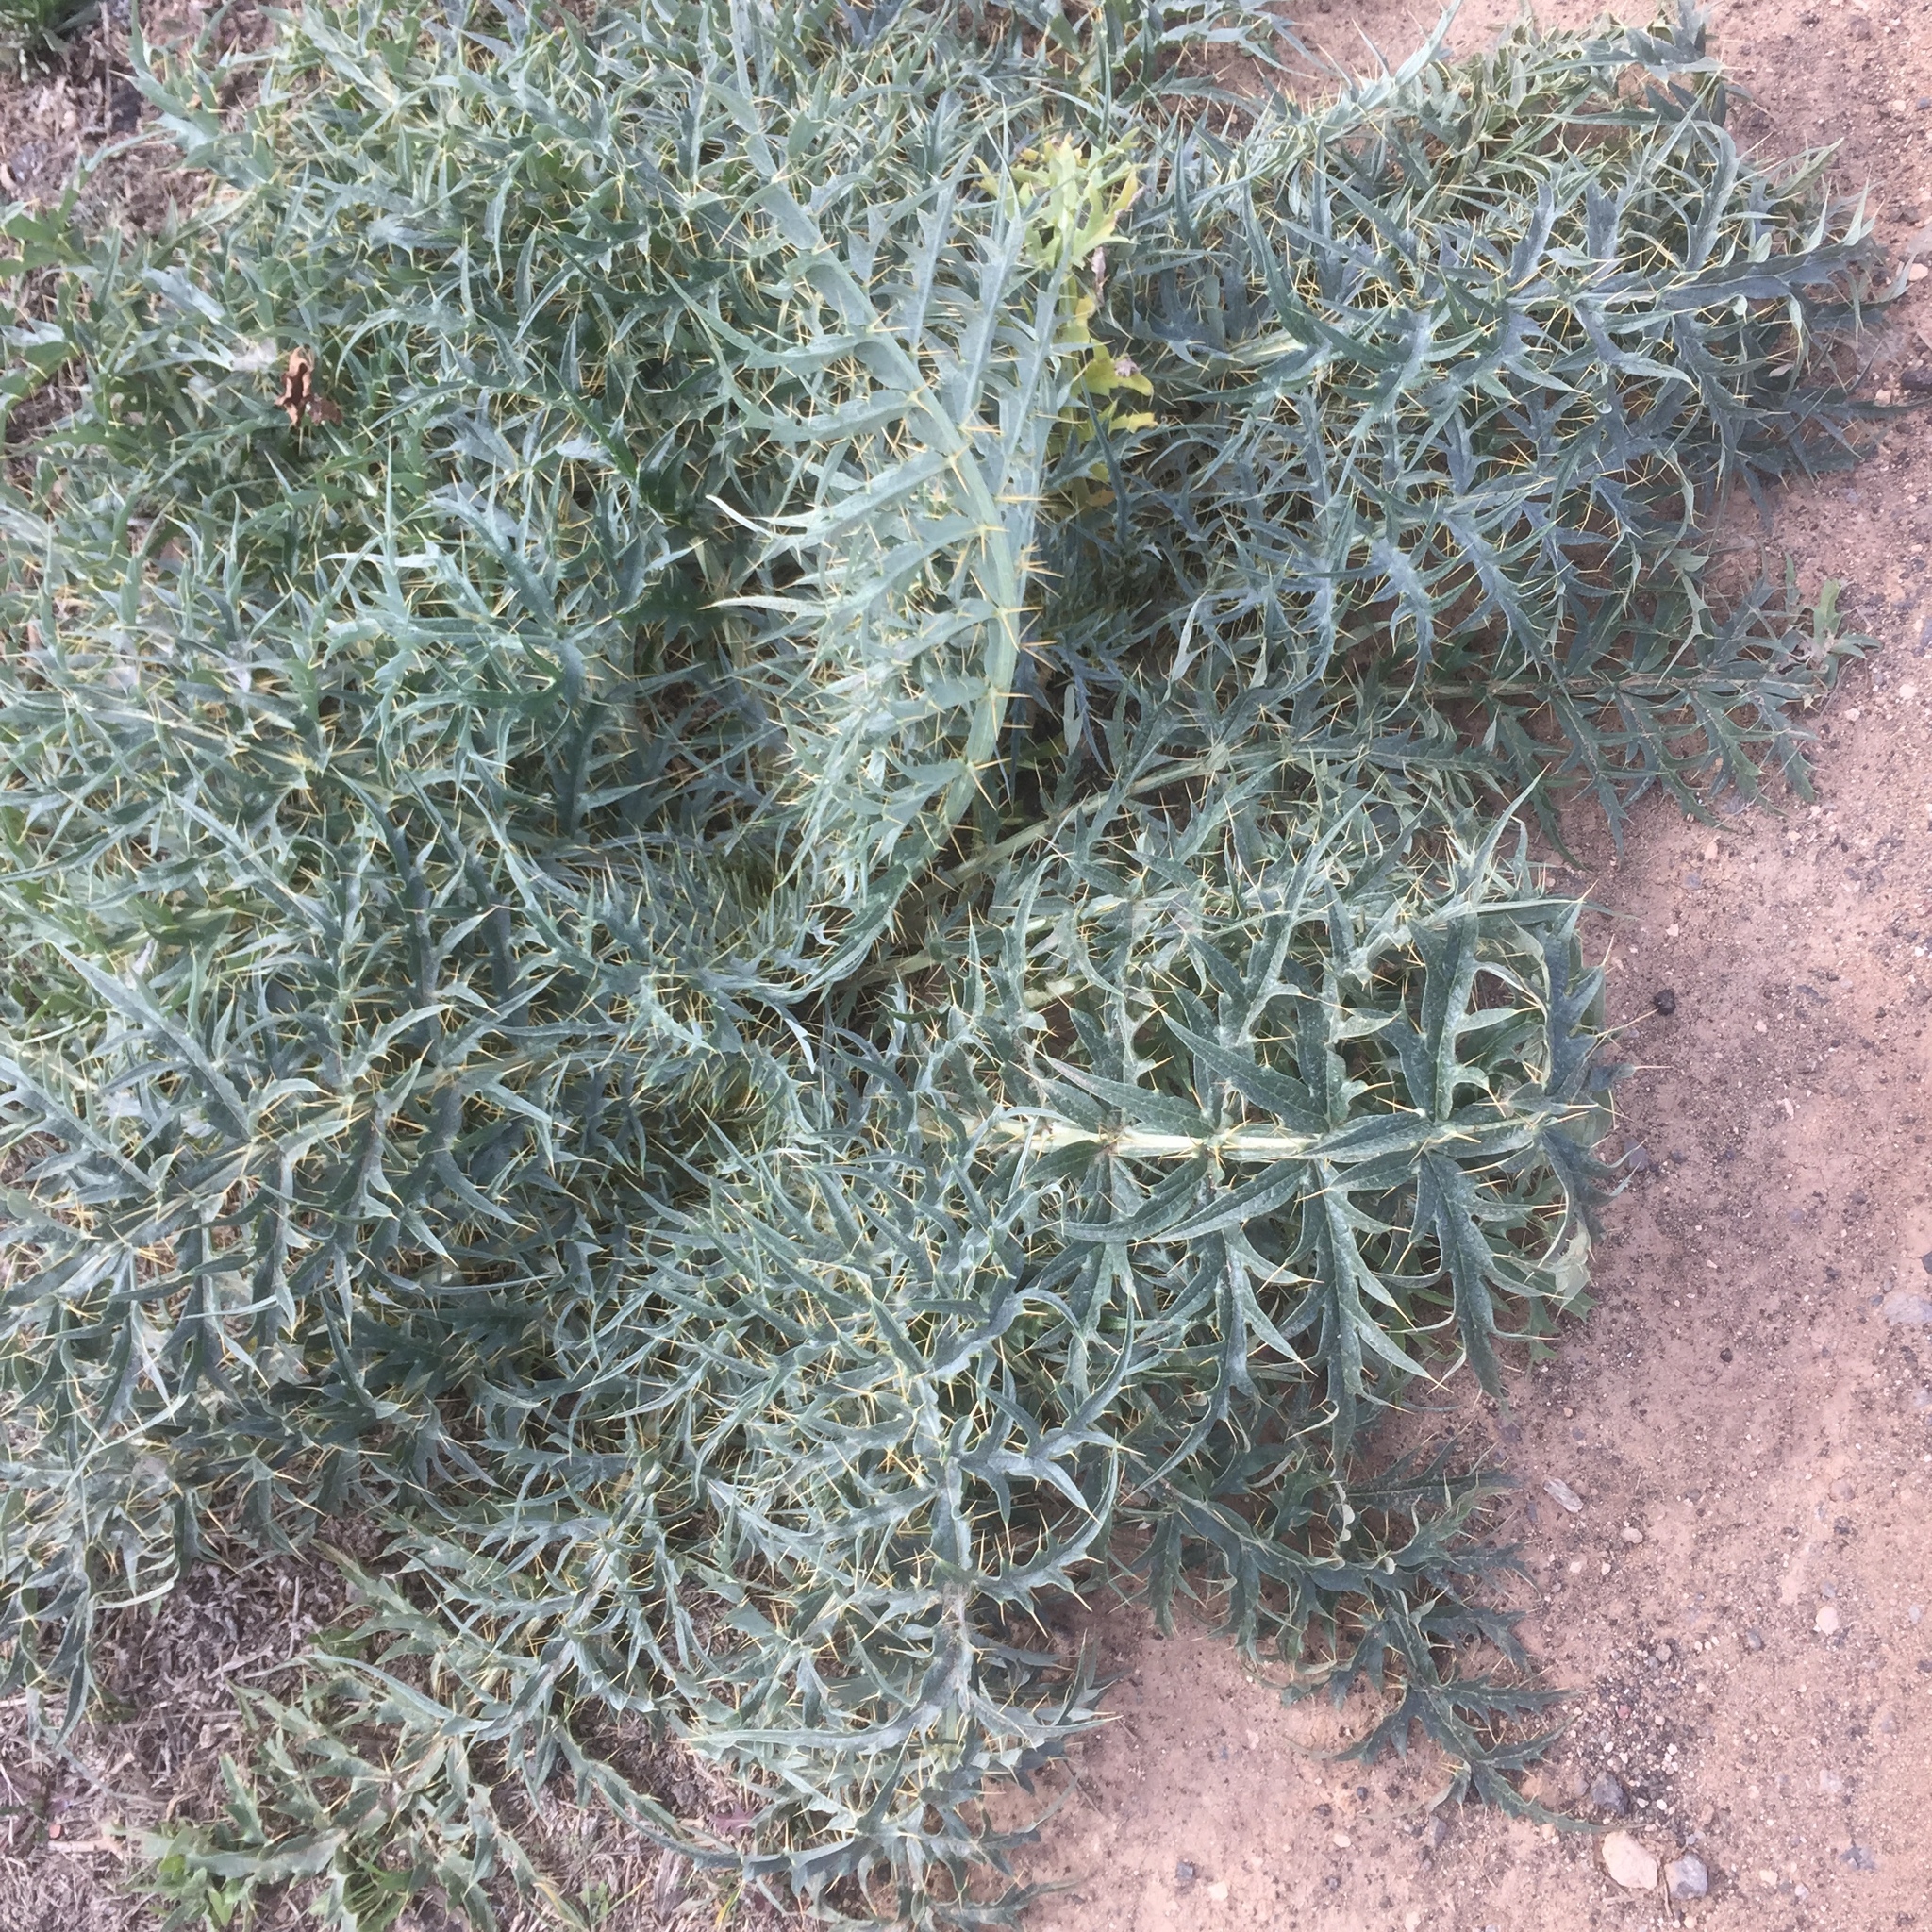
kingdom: Plantae
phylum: Tracheophyta
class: Magnoliopsida
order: Asterales
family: Asteraceae
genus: Cynara
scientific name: Cynara cardunculus
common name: Globe artichoke
